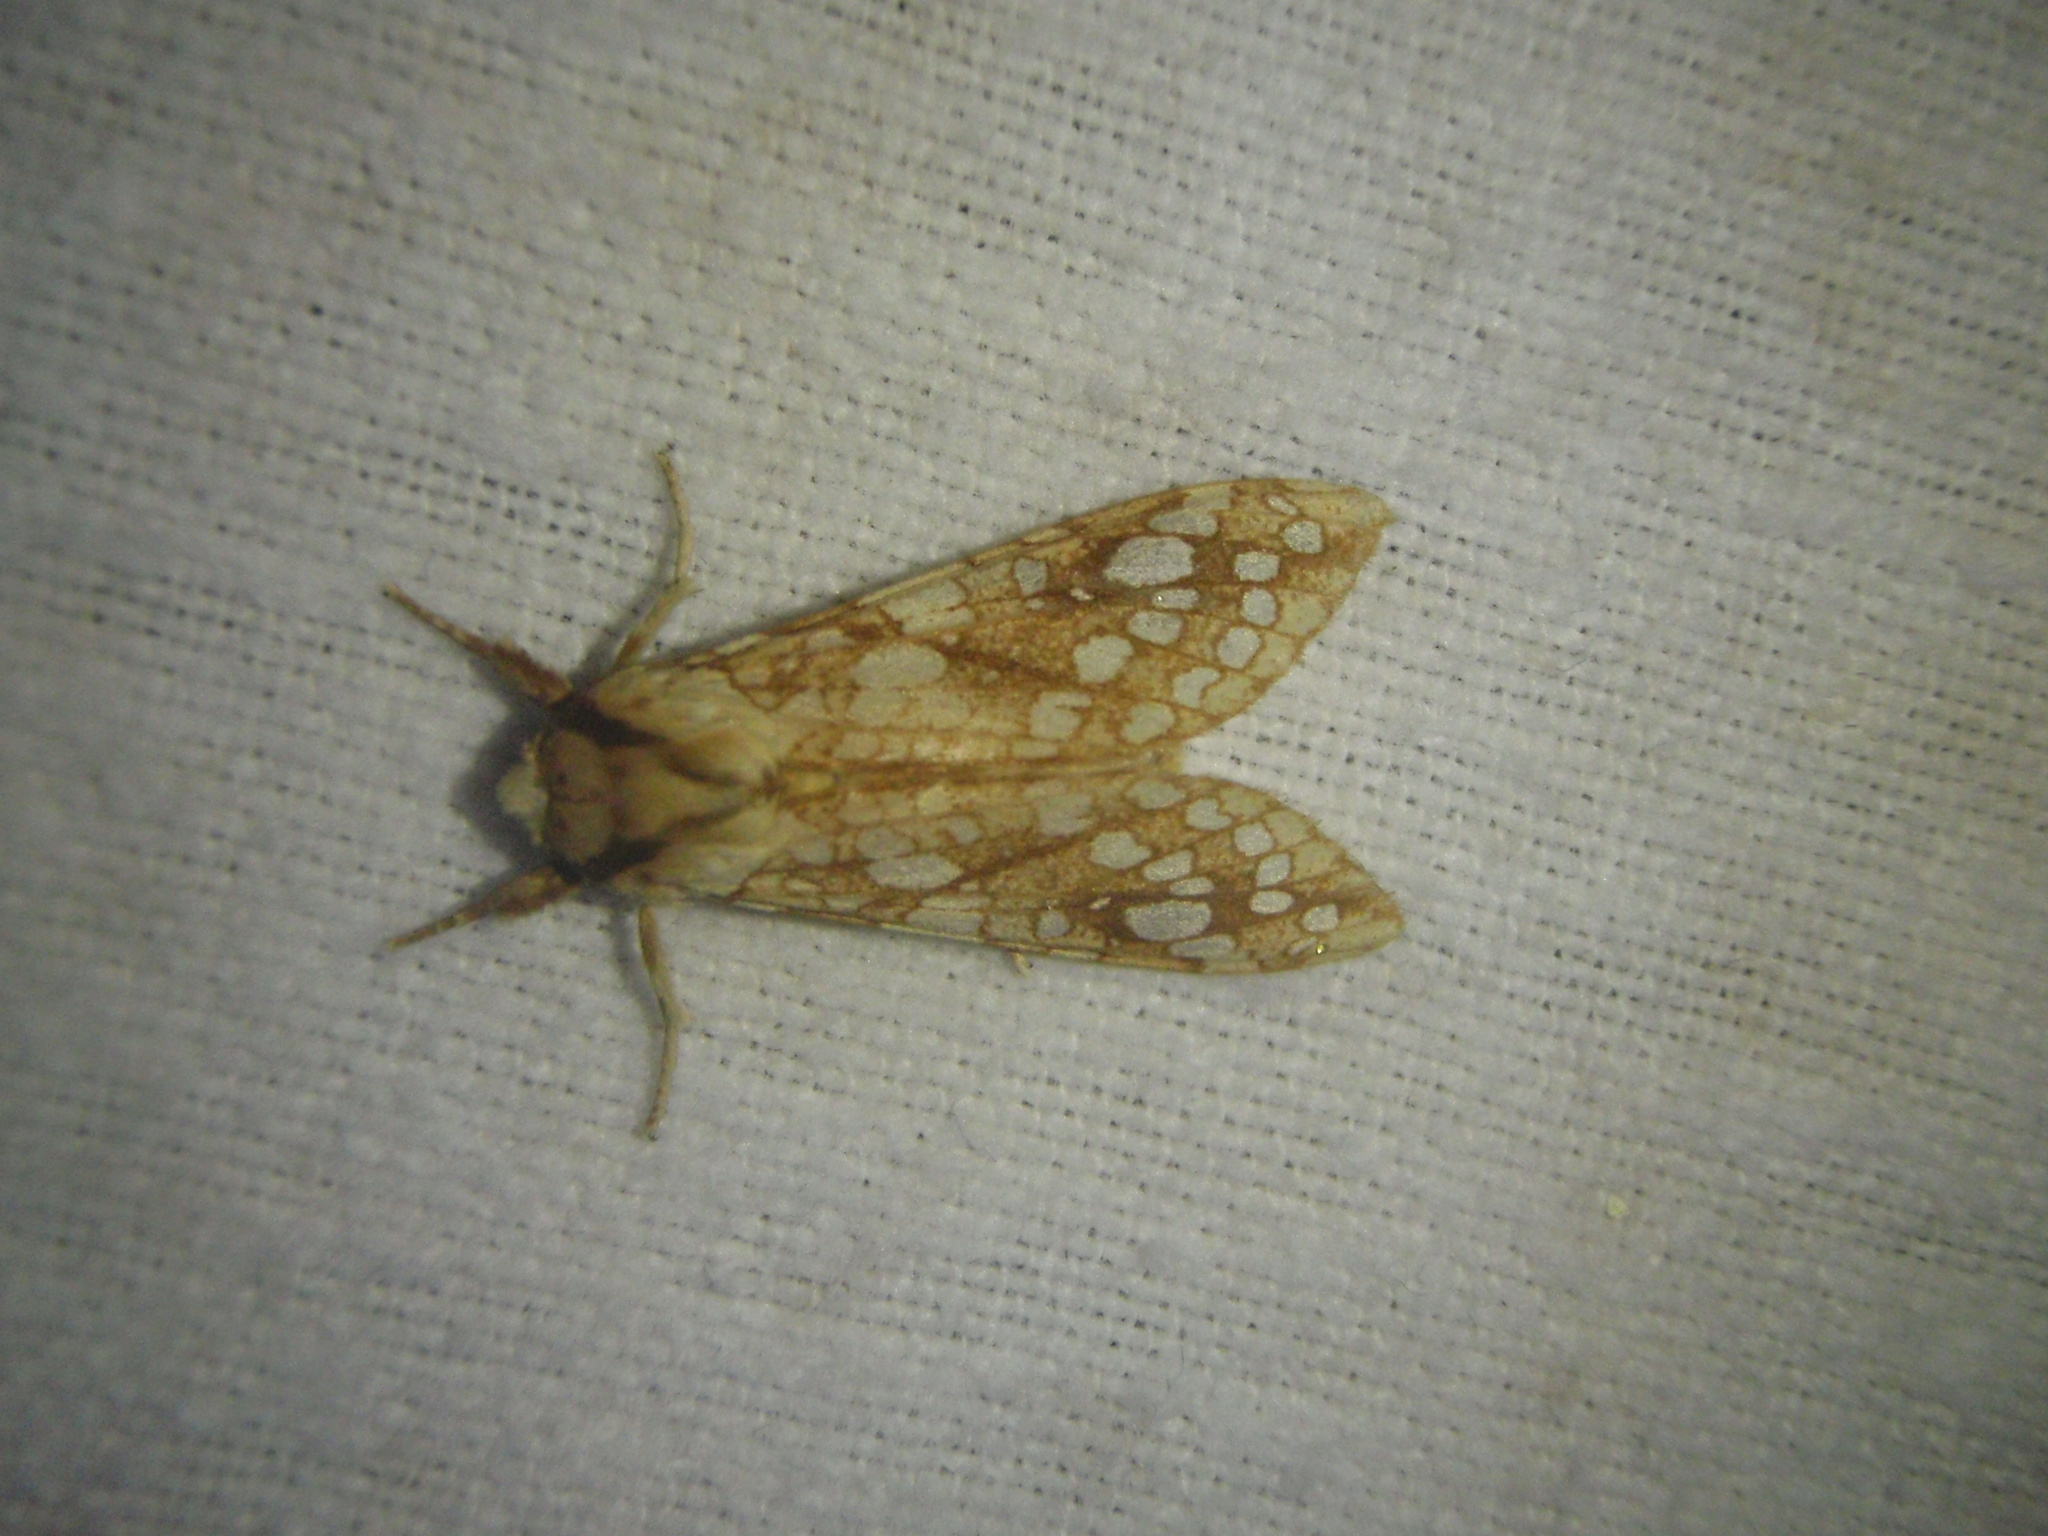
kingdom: Animalia
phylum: Arthropoda
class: Insecta
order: Lepidoptera
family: Erebidae
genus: Lophocampa
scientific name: Lophocampa caryae
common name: Hickory tussock moth
